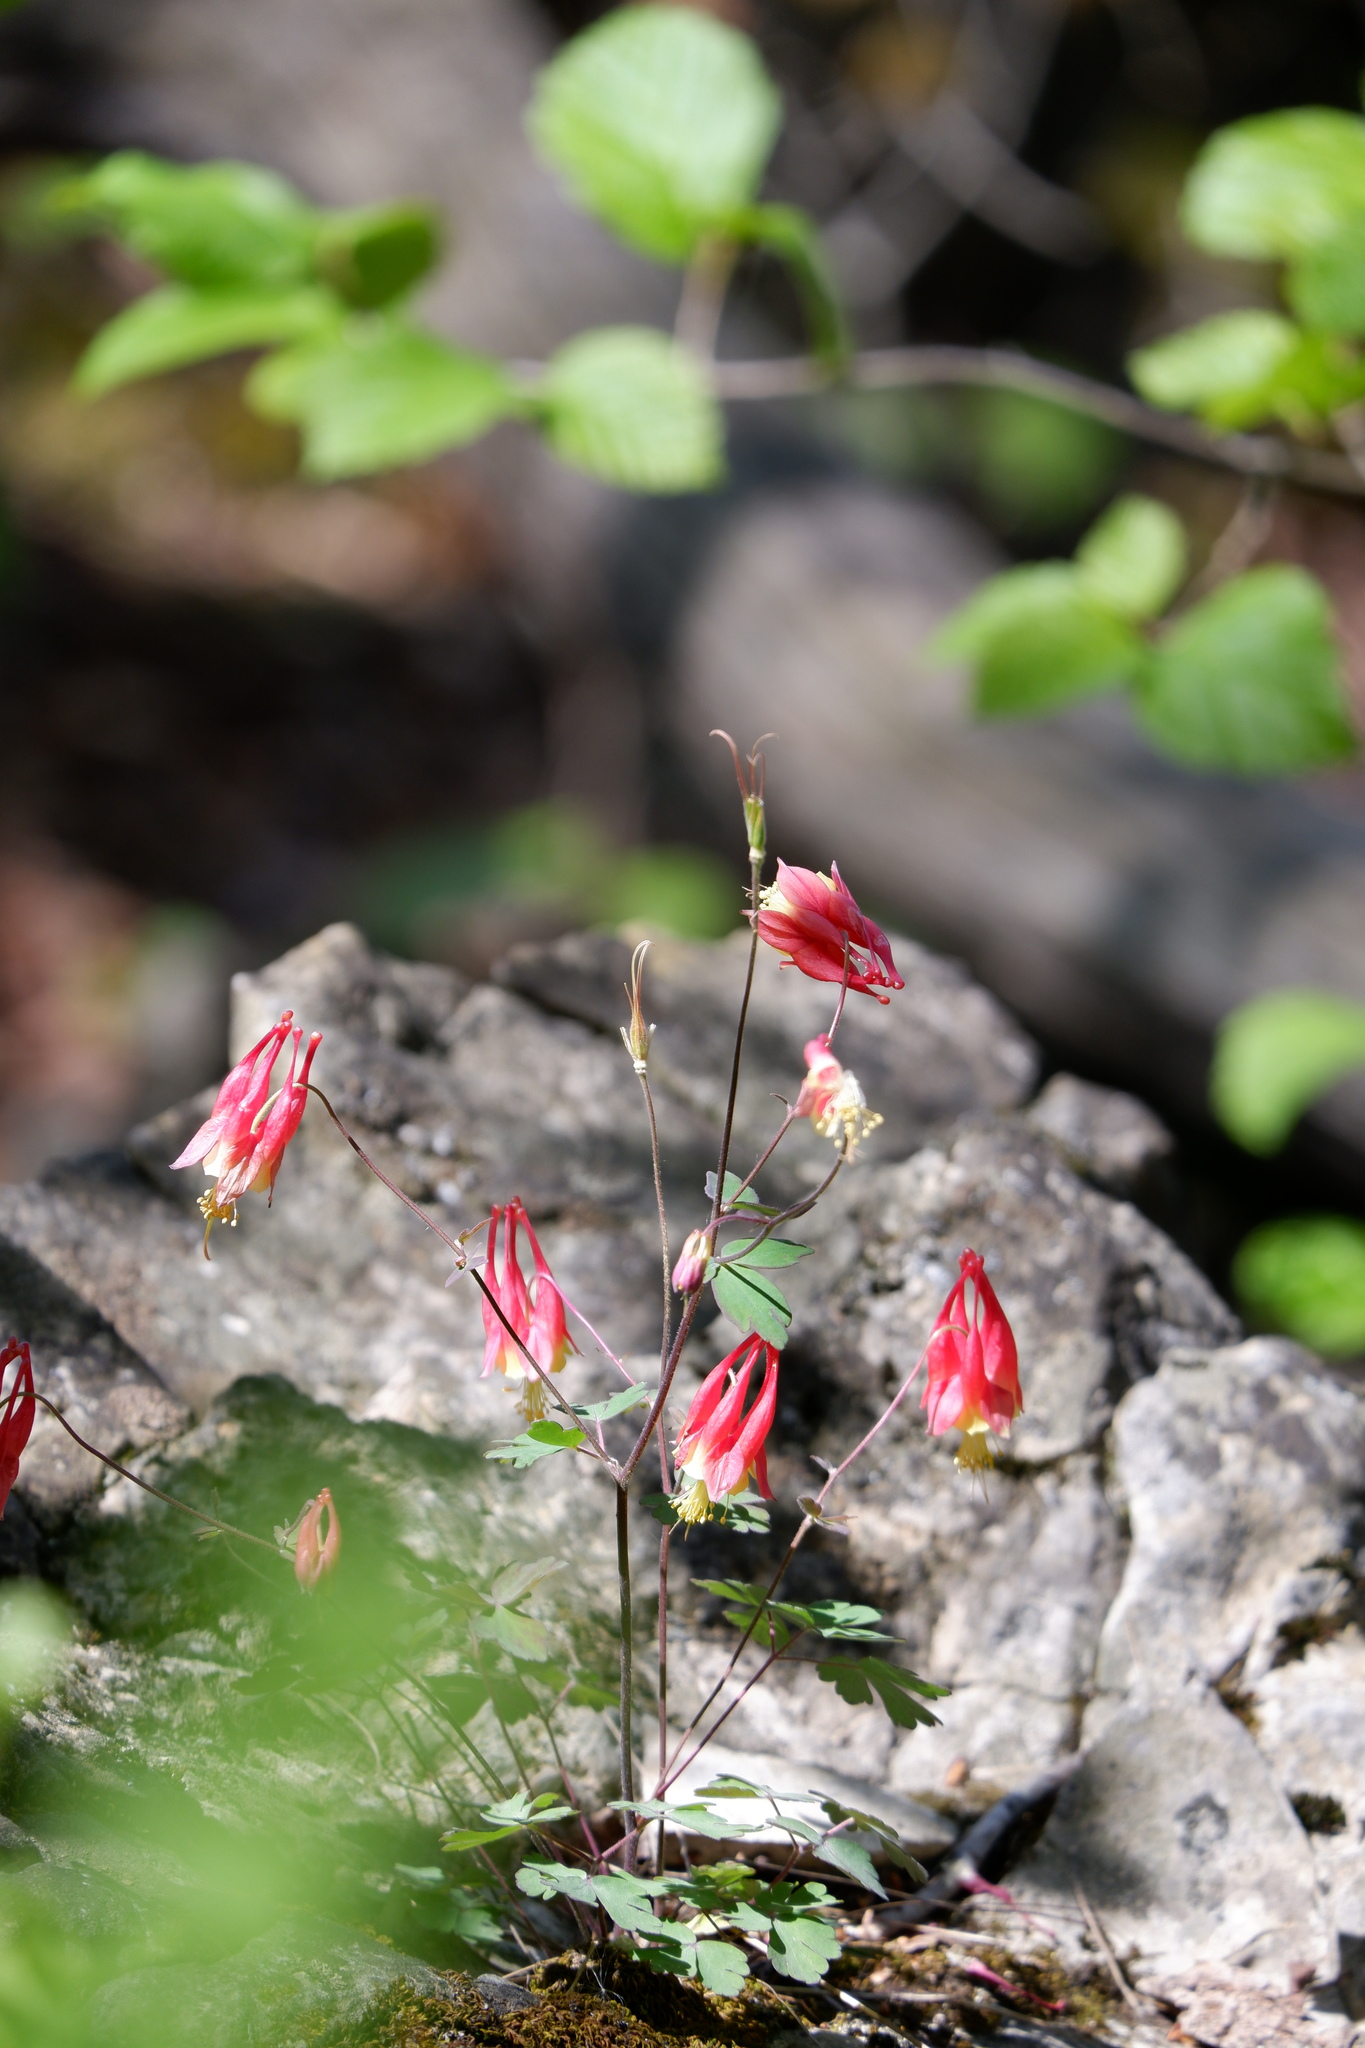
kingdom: Plantae
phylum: Tracheophyta
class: Magnoliopsida
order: Ranunculales
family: Ranunculaceae
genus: Aquilegia
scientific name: Aquilegia canadensis
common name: American columbine
